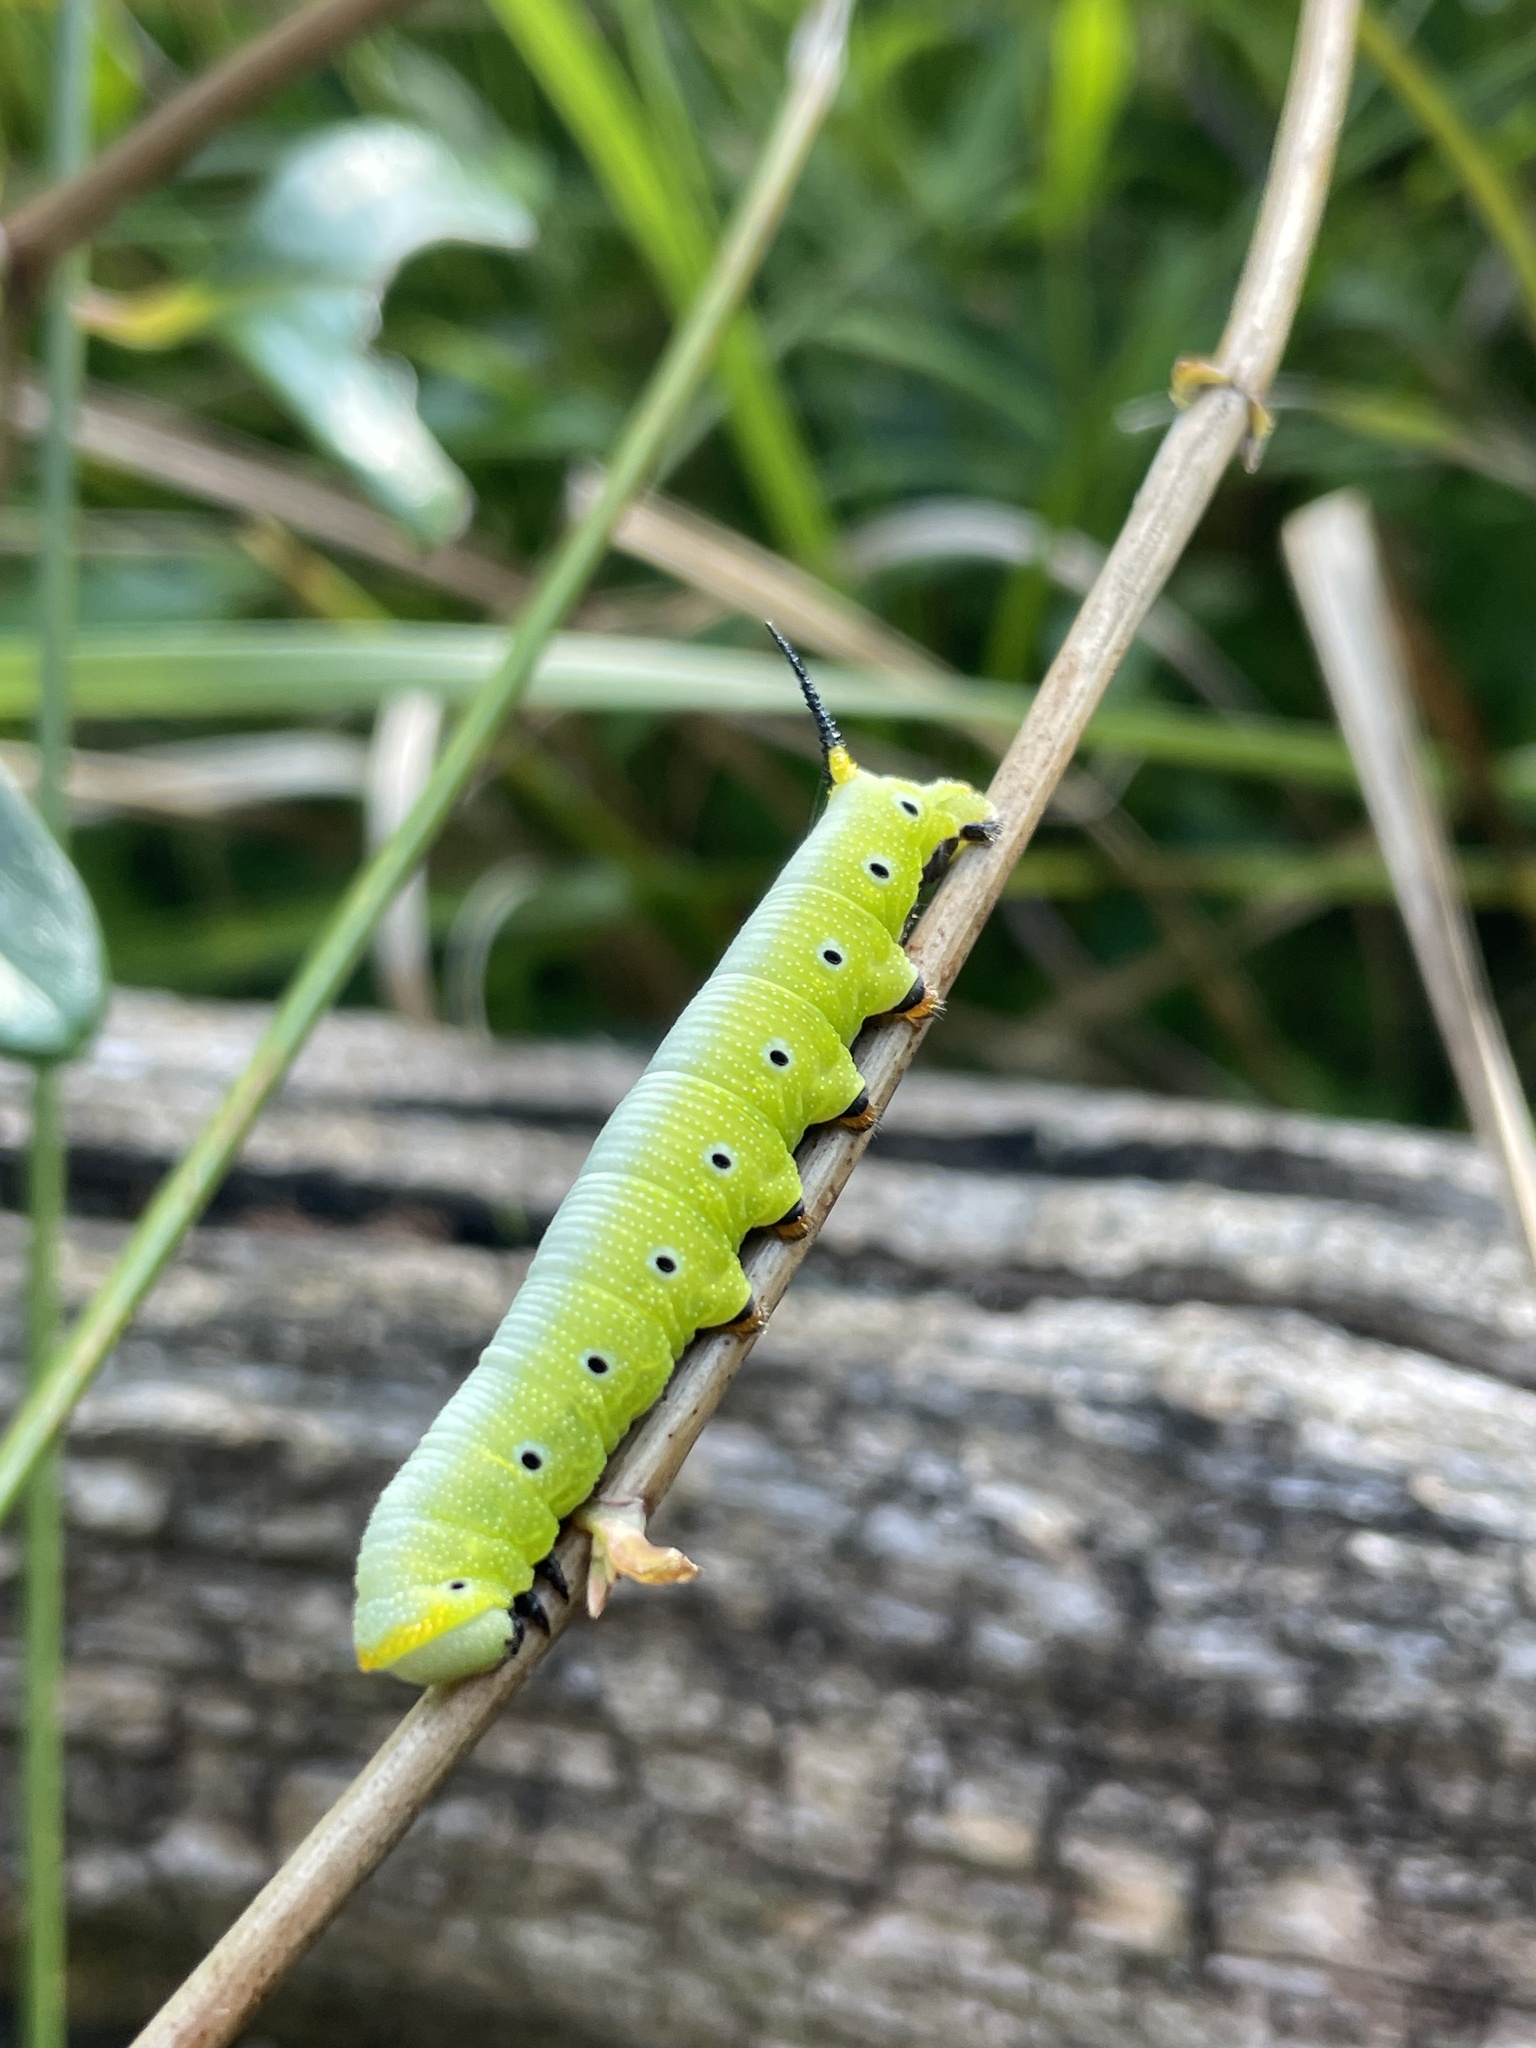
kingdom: Animalia
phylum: Arthropoda
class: Insecta
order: Lepidoptera
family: Sphingidae
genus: Hemaris
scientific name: Hemaris diffinis
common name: Bumblebee moth
